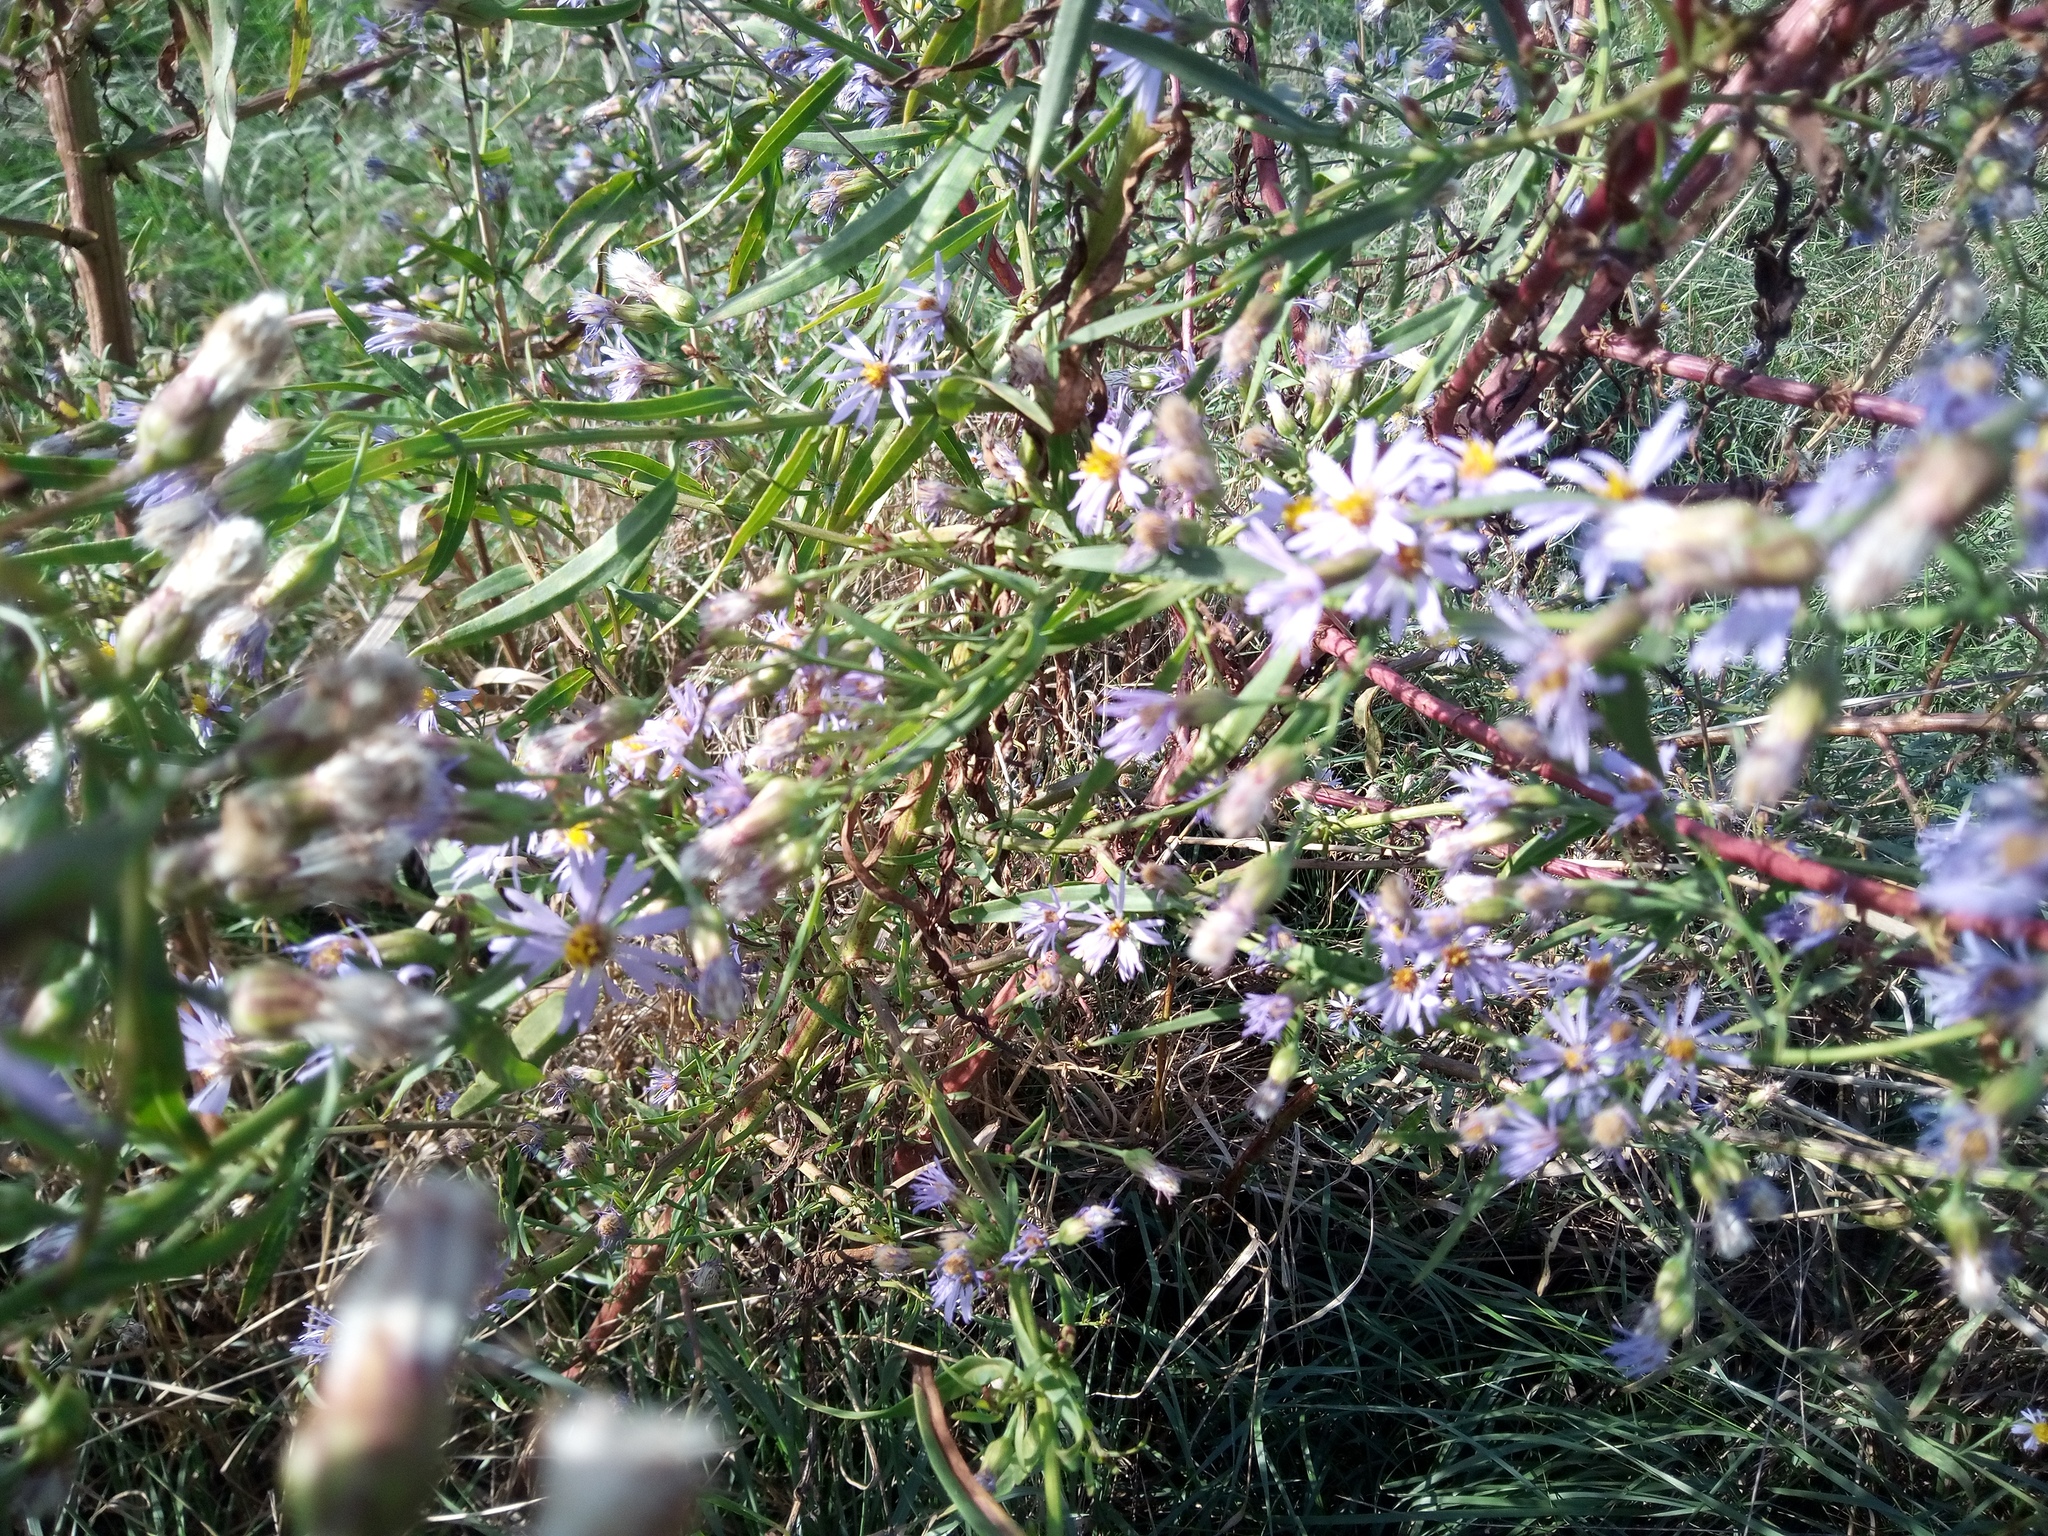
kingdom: Plantae
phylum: Tracheophyta
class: Magnoliopsida
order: Asterales
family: Asteraceae
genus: Tripolium
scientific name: Tripolium pannonicum
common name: Sea aster
